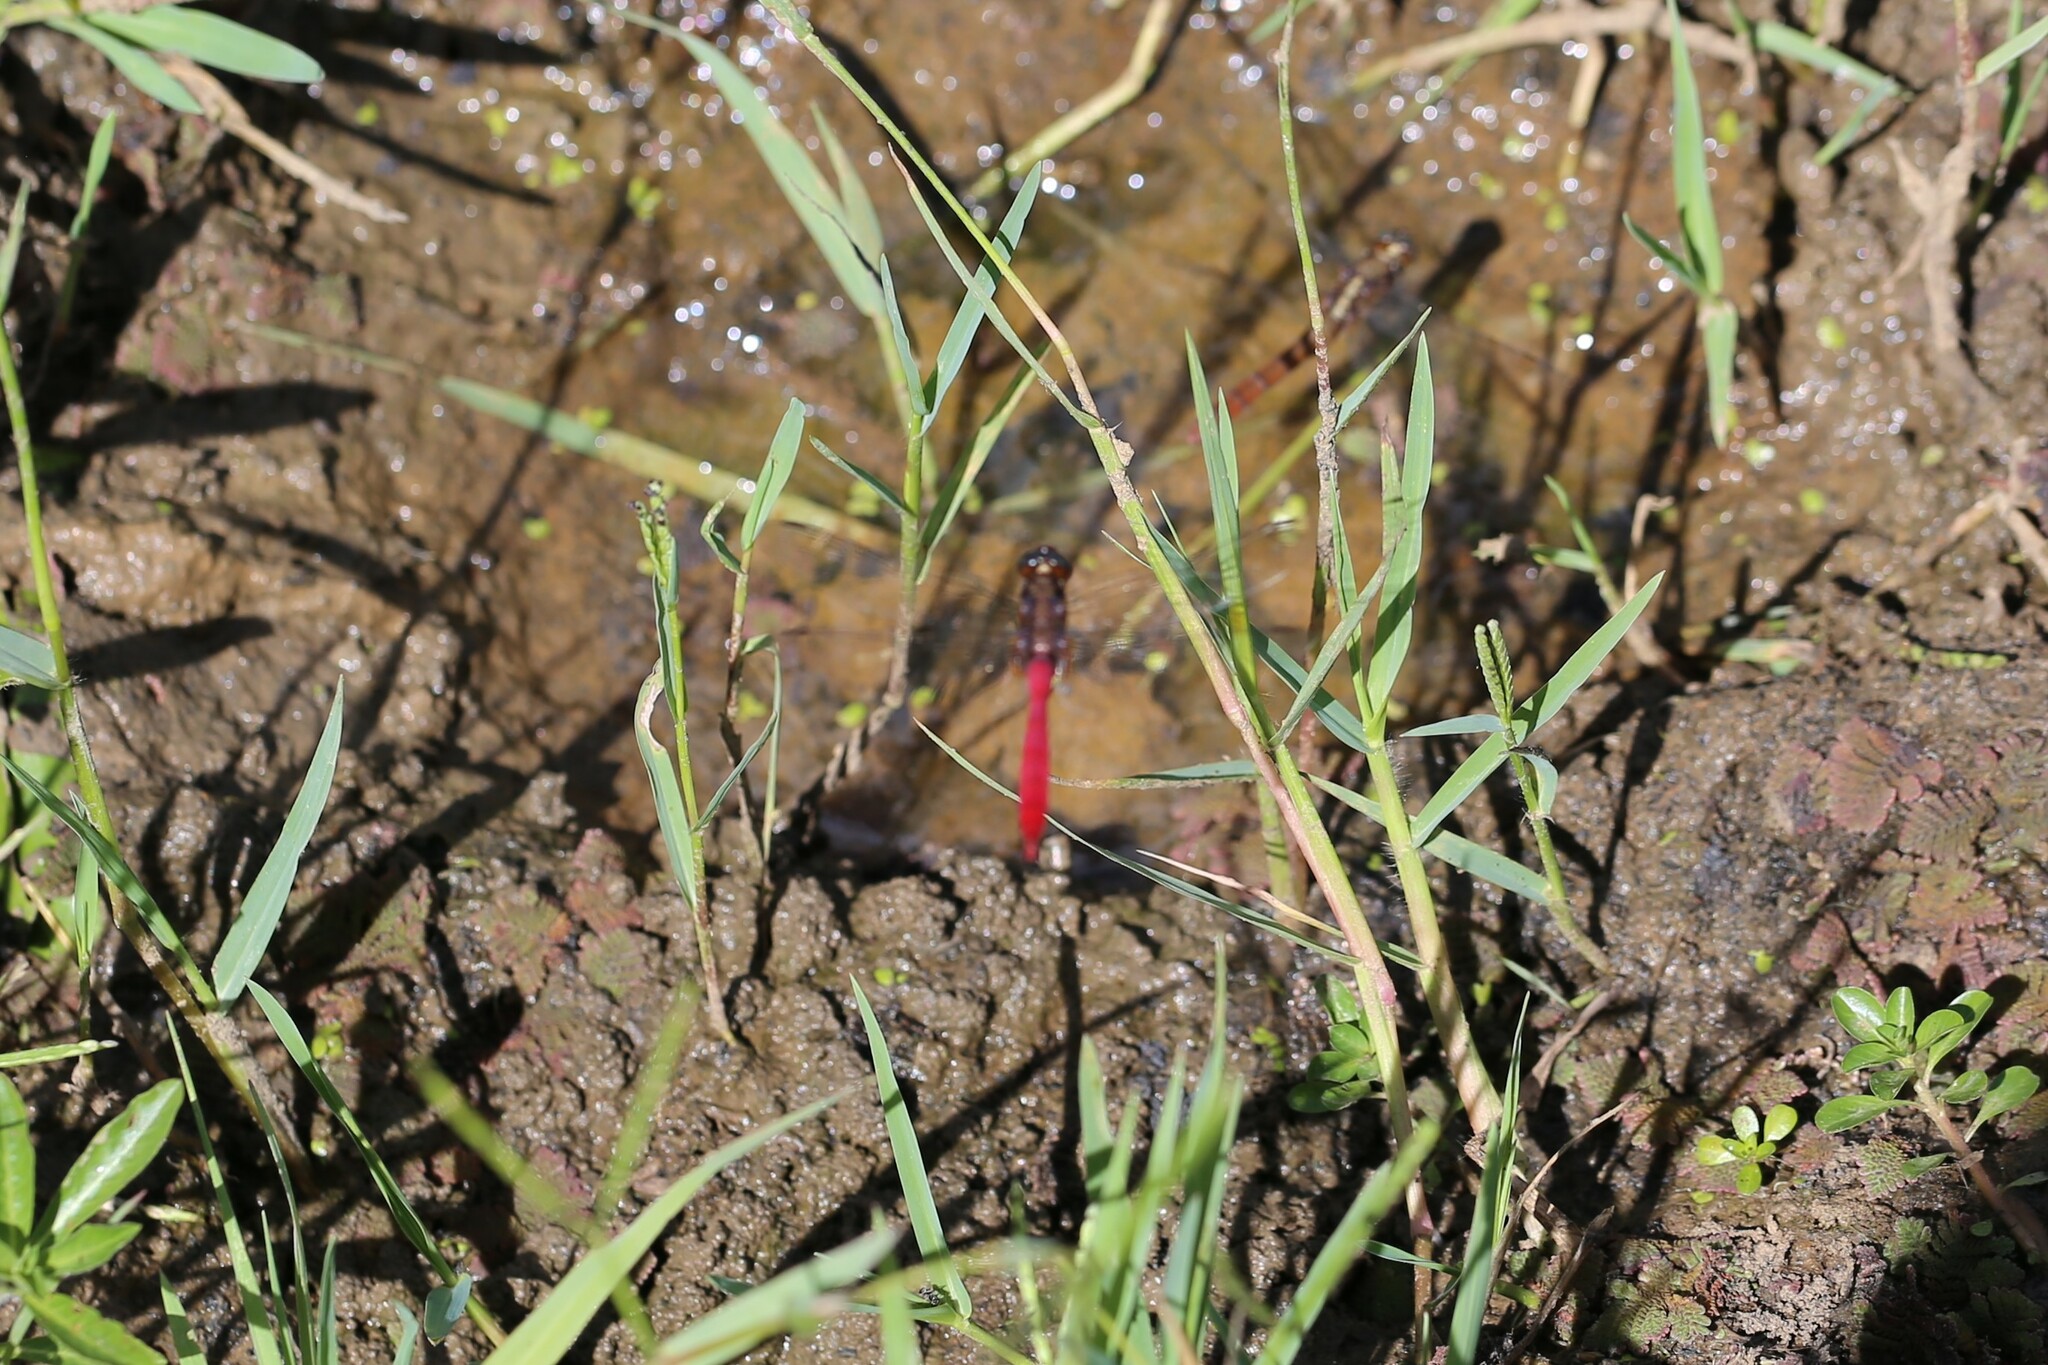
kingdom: Animalia
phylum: Arthropoda
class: Insecta
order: Odonata
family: Libellulidae
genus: Orthetrum
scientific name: Orthetrum villosovittatum
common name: Firery skimmer
